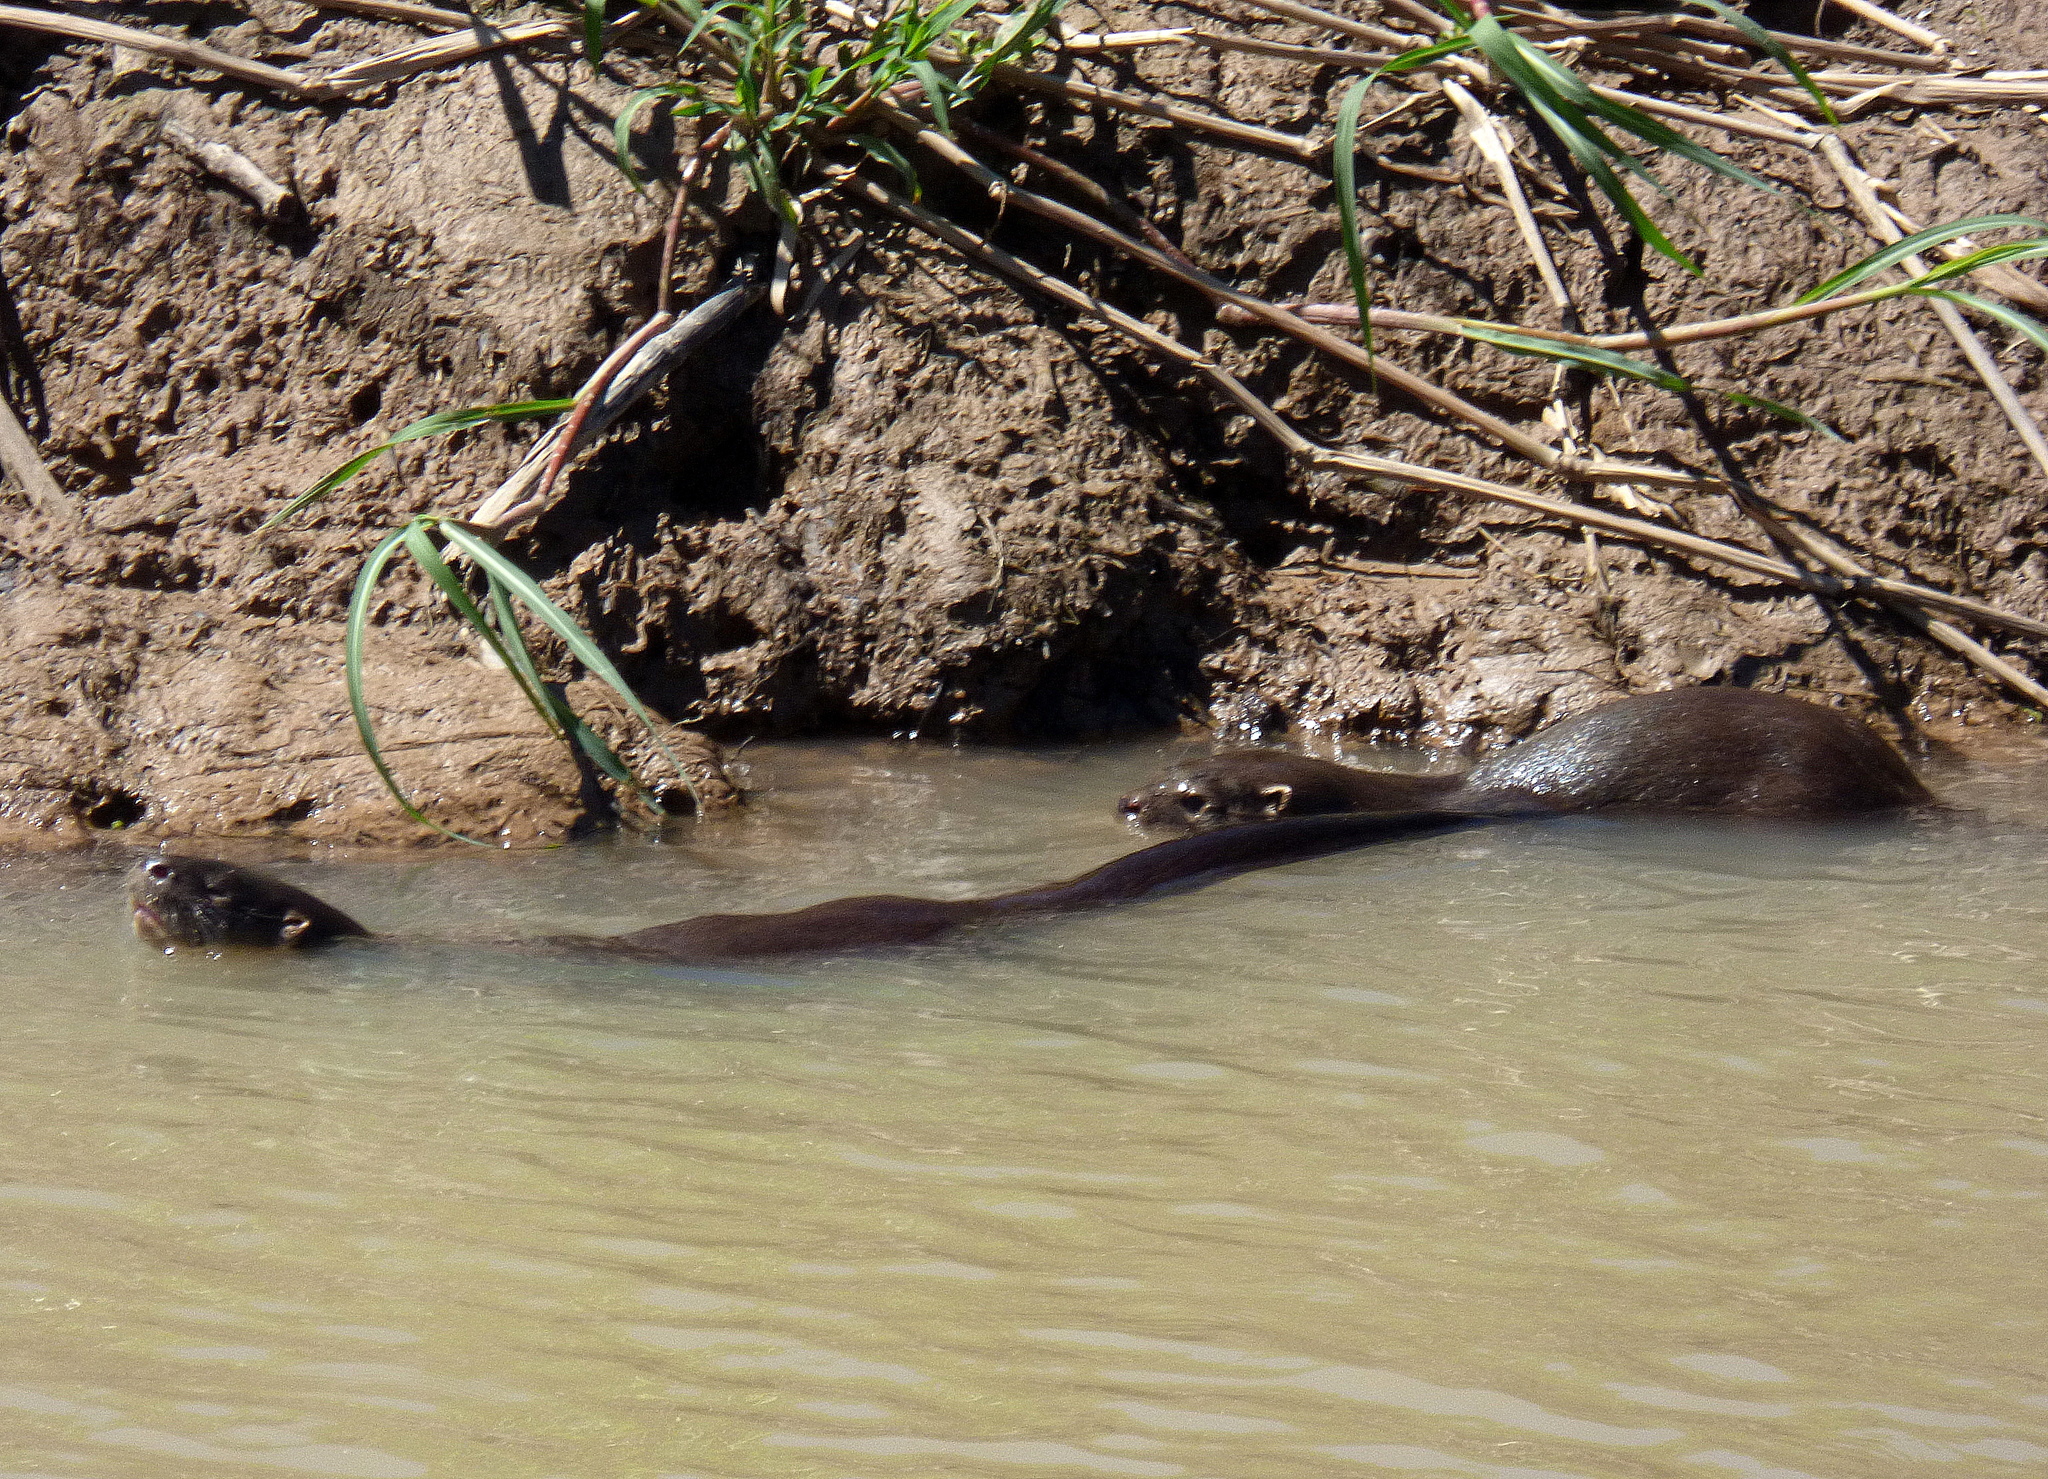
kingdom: Animalia
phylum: Chordata
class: Mammalia
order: Carnivora
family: Mustelidae
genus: Lontra
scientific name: Lontra longicaudis
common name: Neotropical otter
